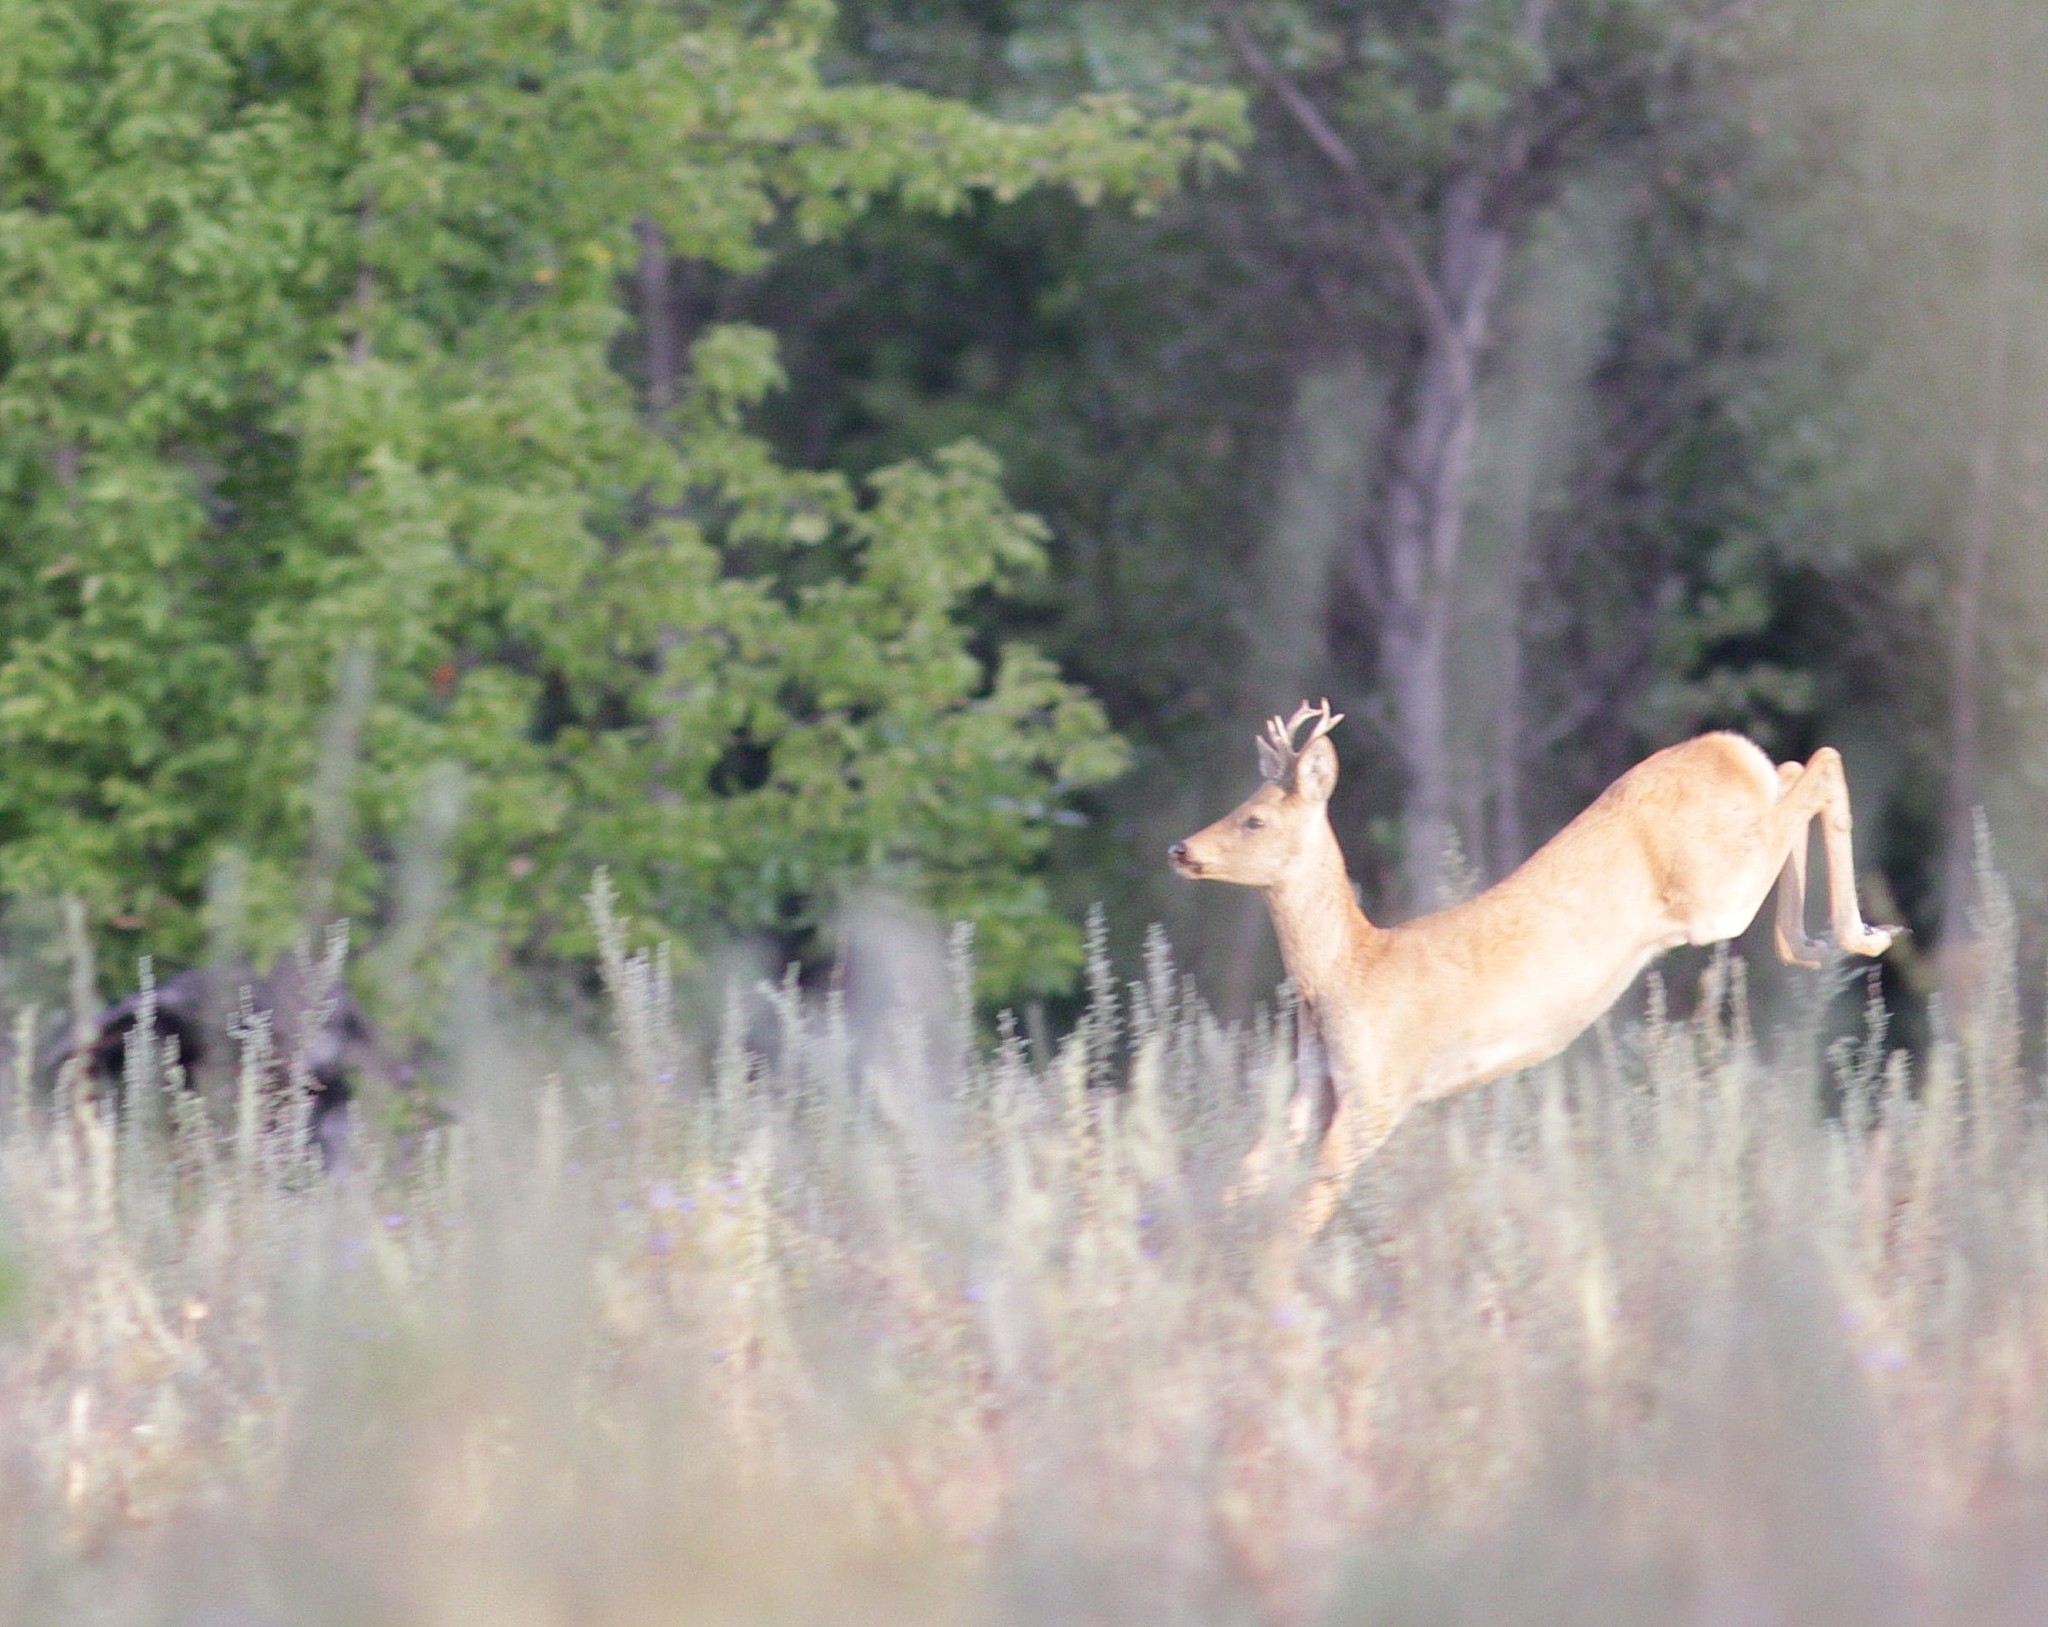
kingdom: Animalia
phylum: Chordata
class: Mammalia
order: Artiodactyla
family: Cervidae
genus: Capreolus
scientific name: Capreolus pygargus
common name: Siberian roe
